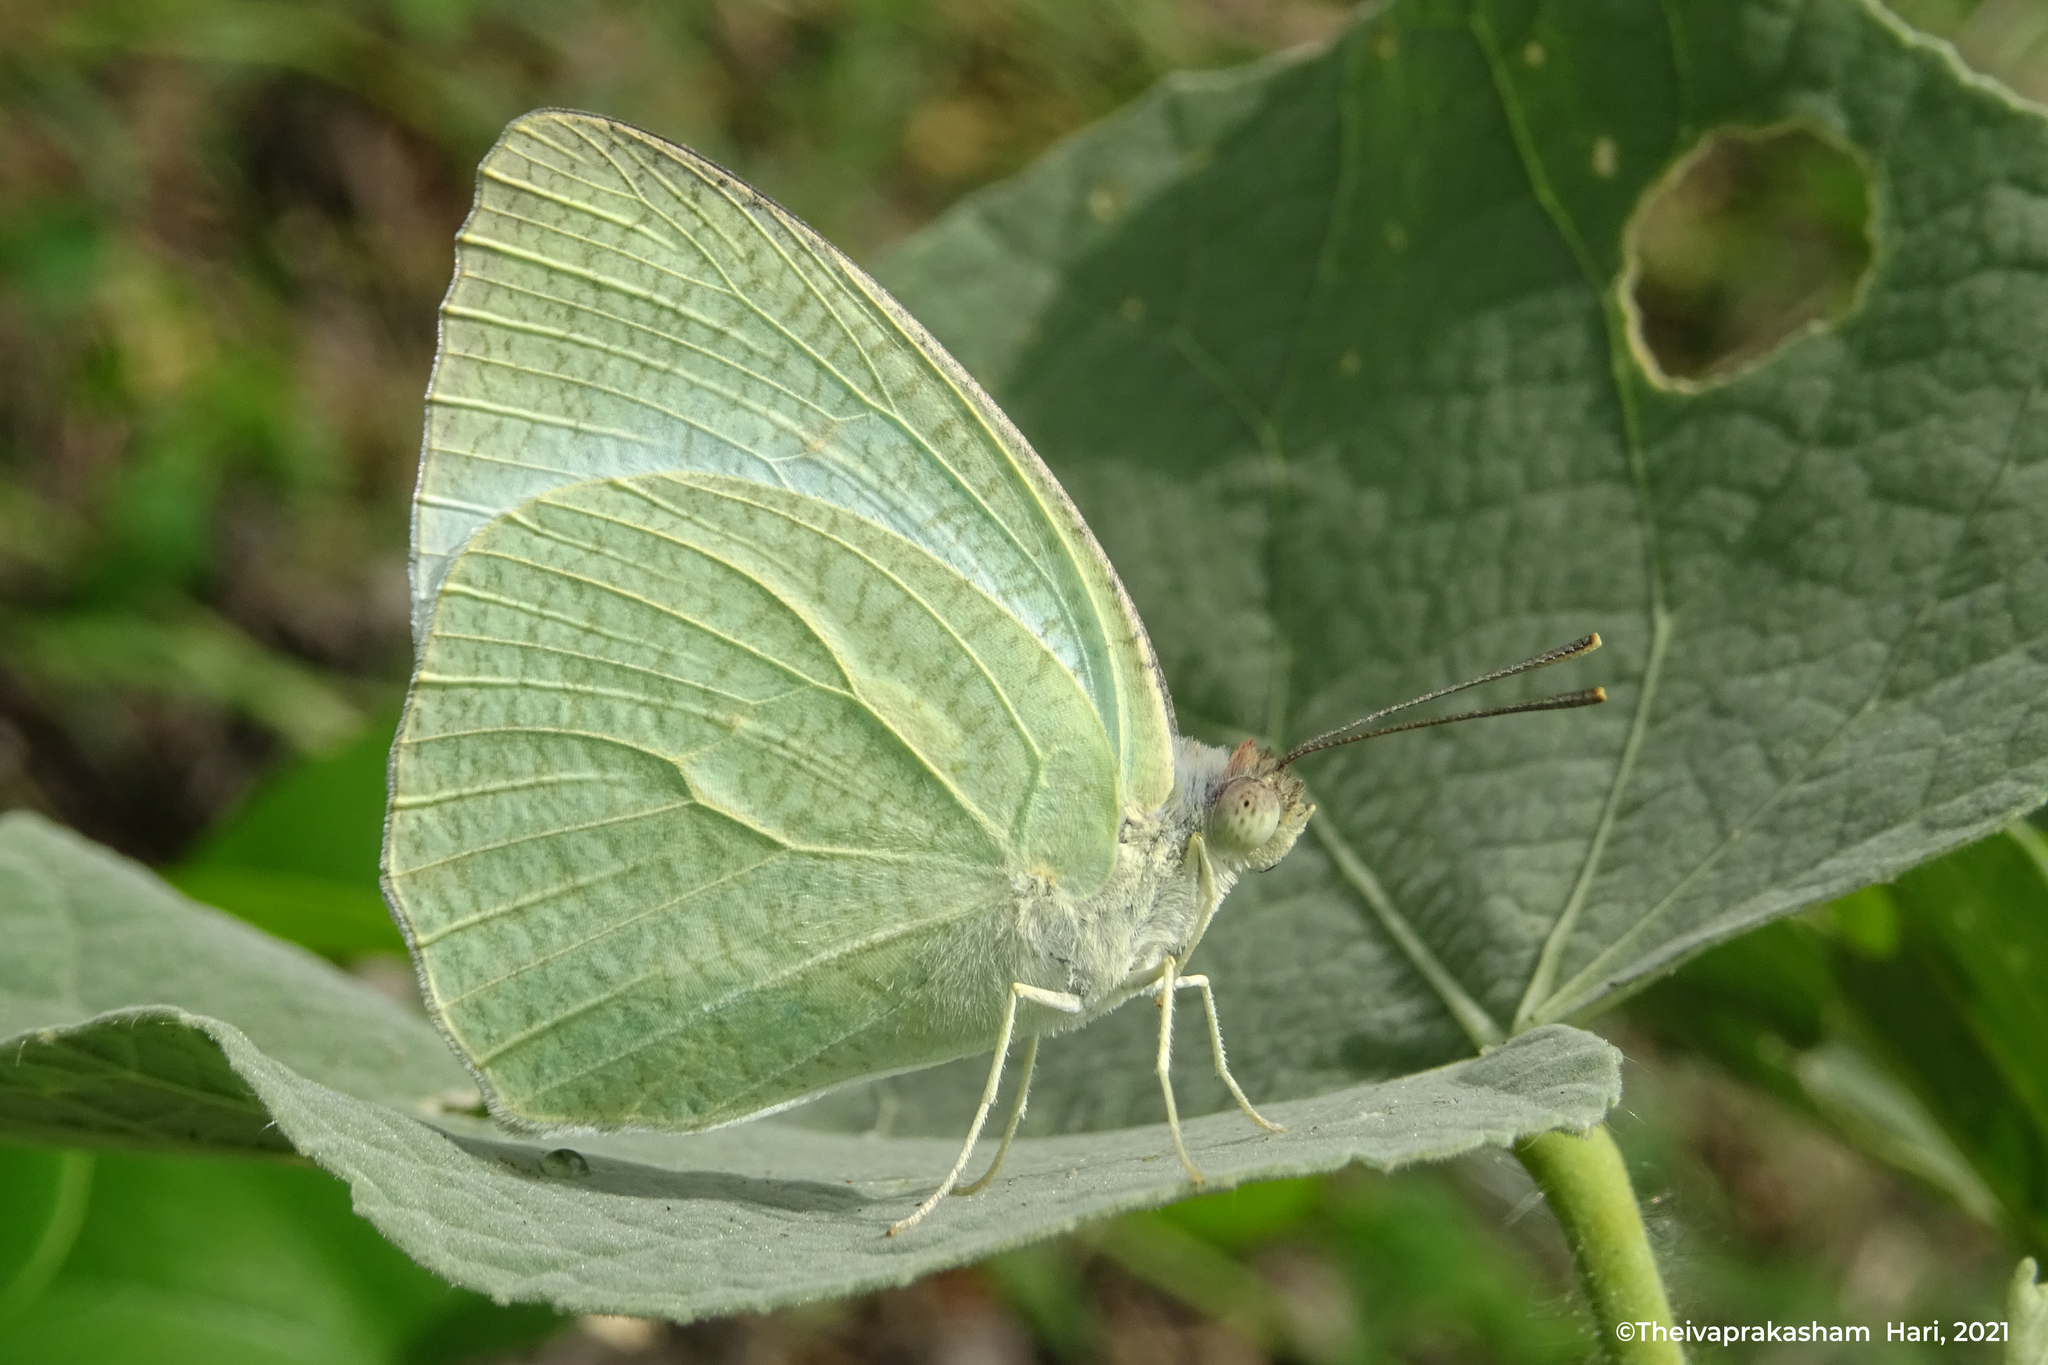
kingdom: Animalia
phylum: Arthropoda
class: Insecta
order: Lepidoptera
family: Pieridae
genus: Catopsilia
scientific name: Catopsilia pyranthe
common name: Mottled emigrant
